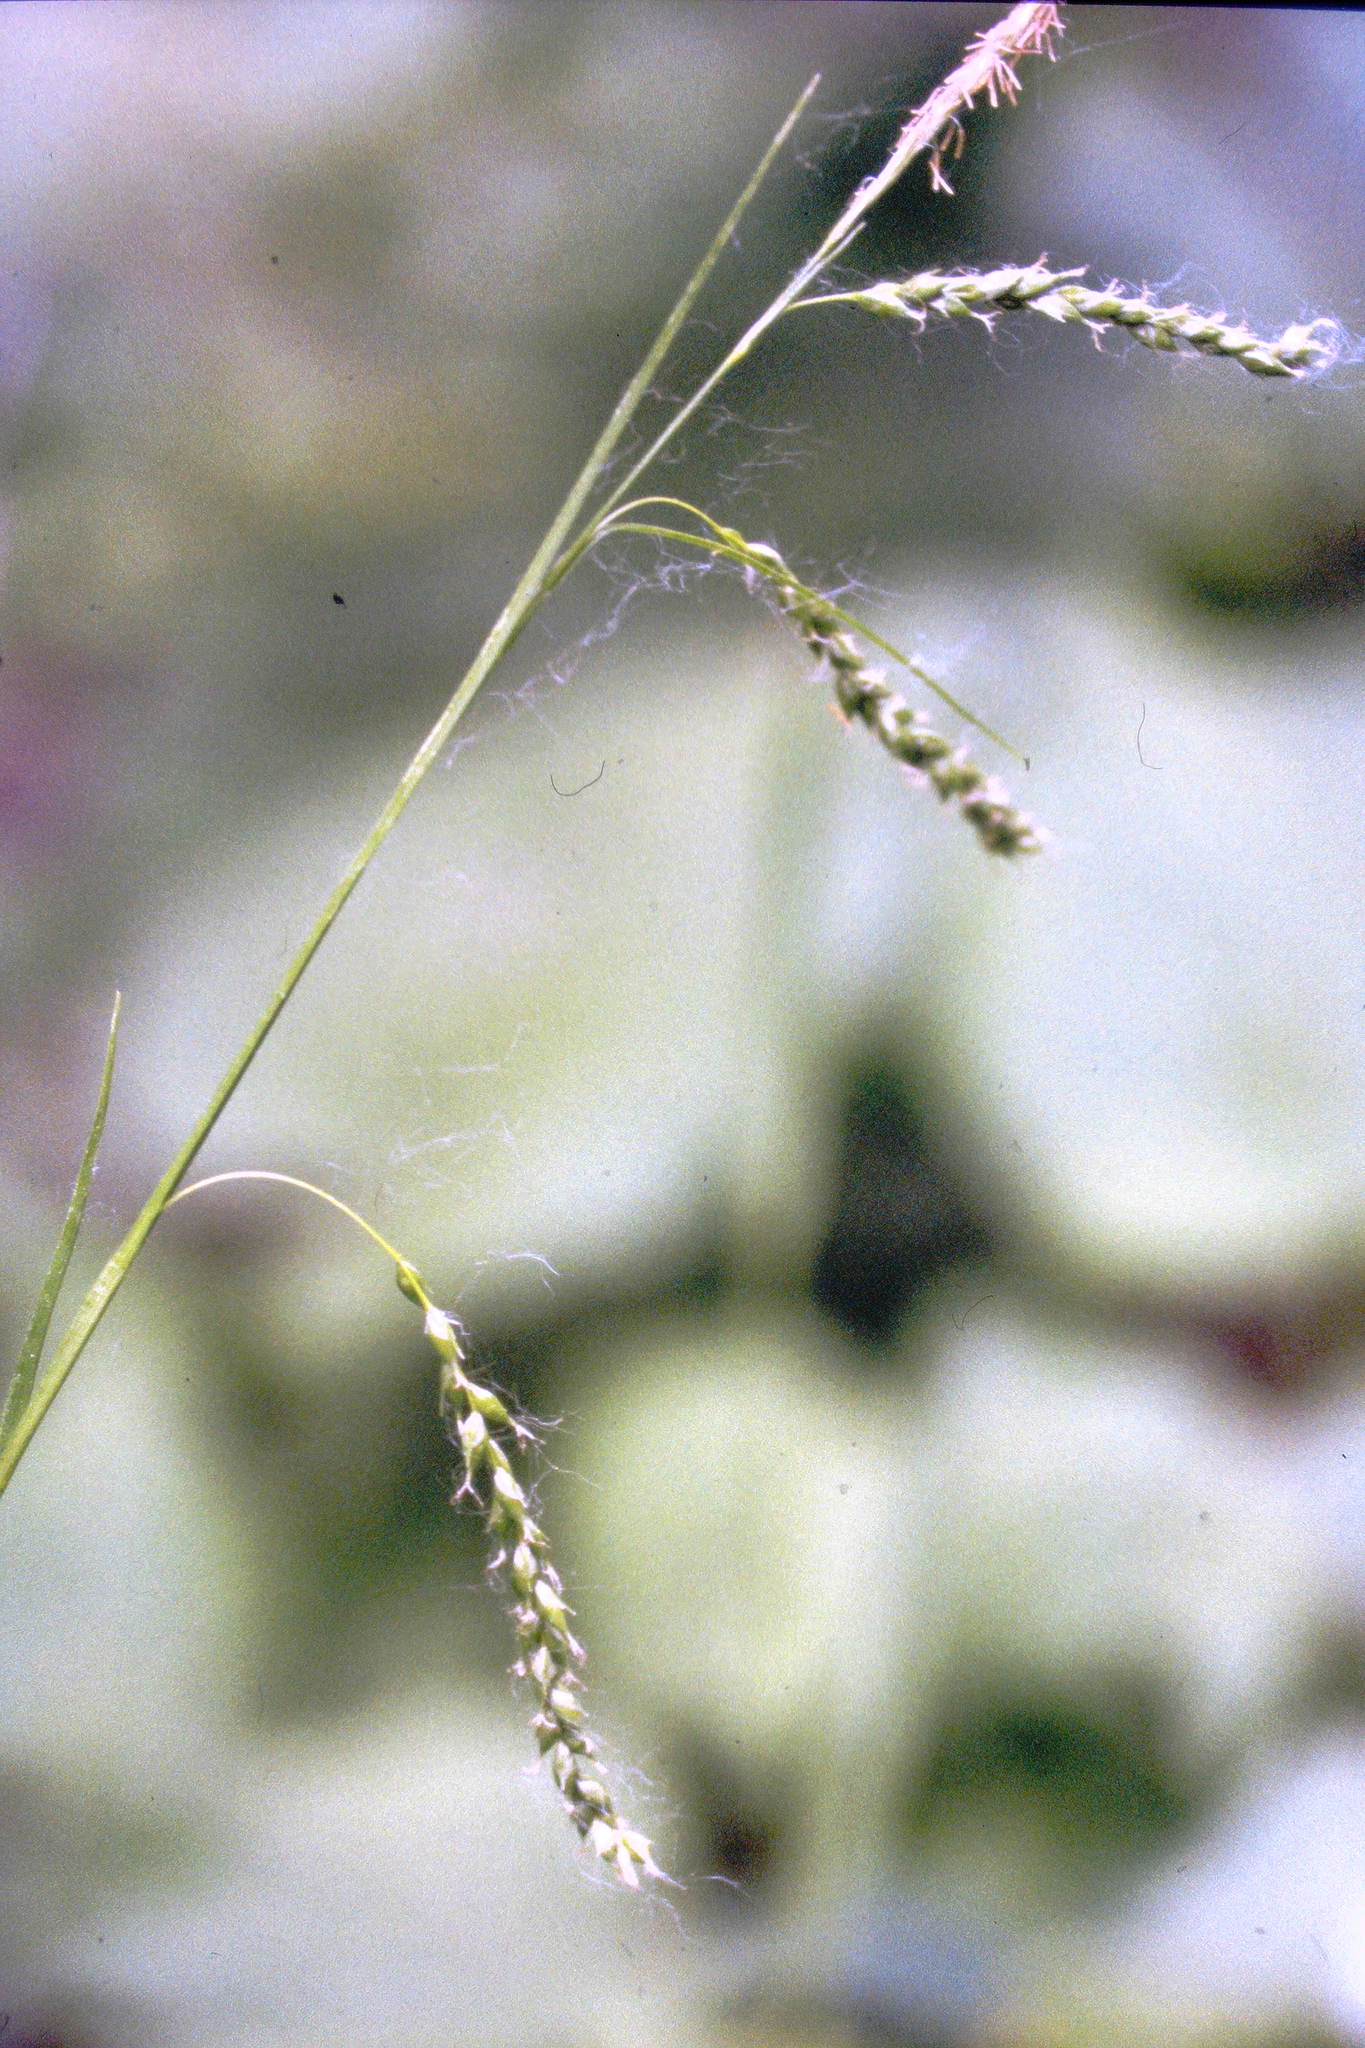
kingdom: Plantae
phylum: Tracheophyta
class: Liliopsida
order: Poales
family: Cyperaceae
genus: Carex
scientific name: Carex arctata
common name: Black sedge
